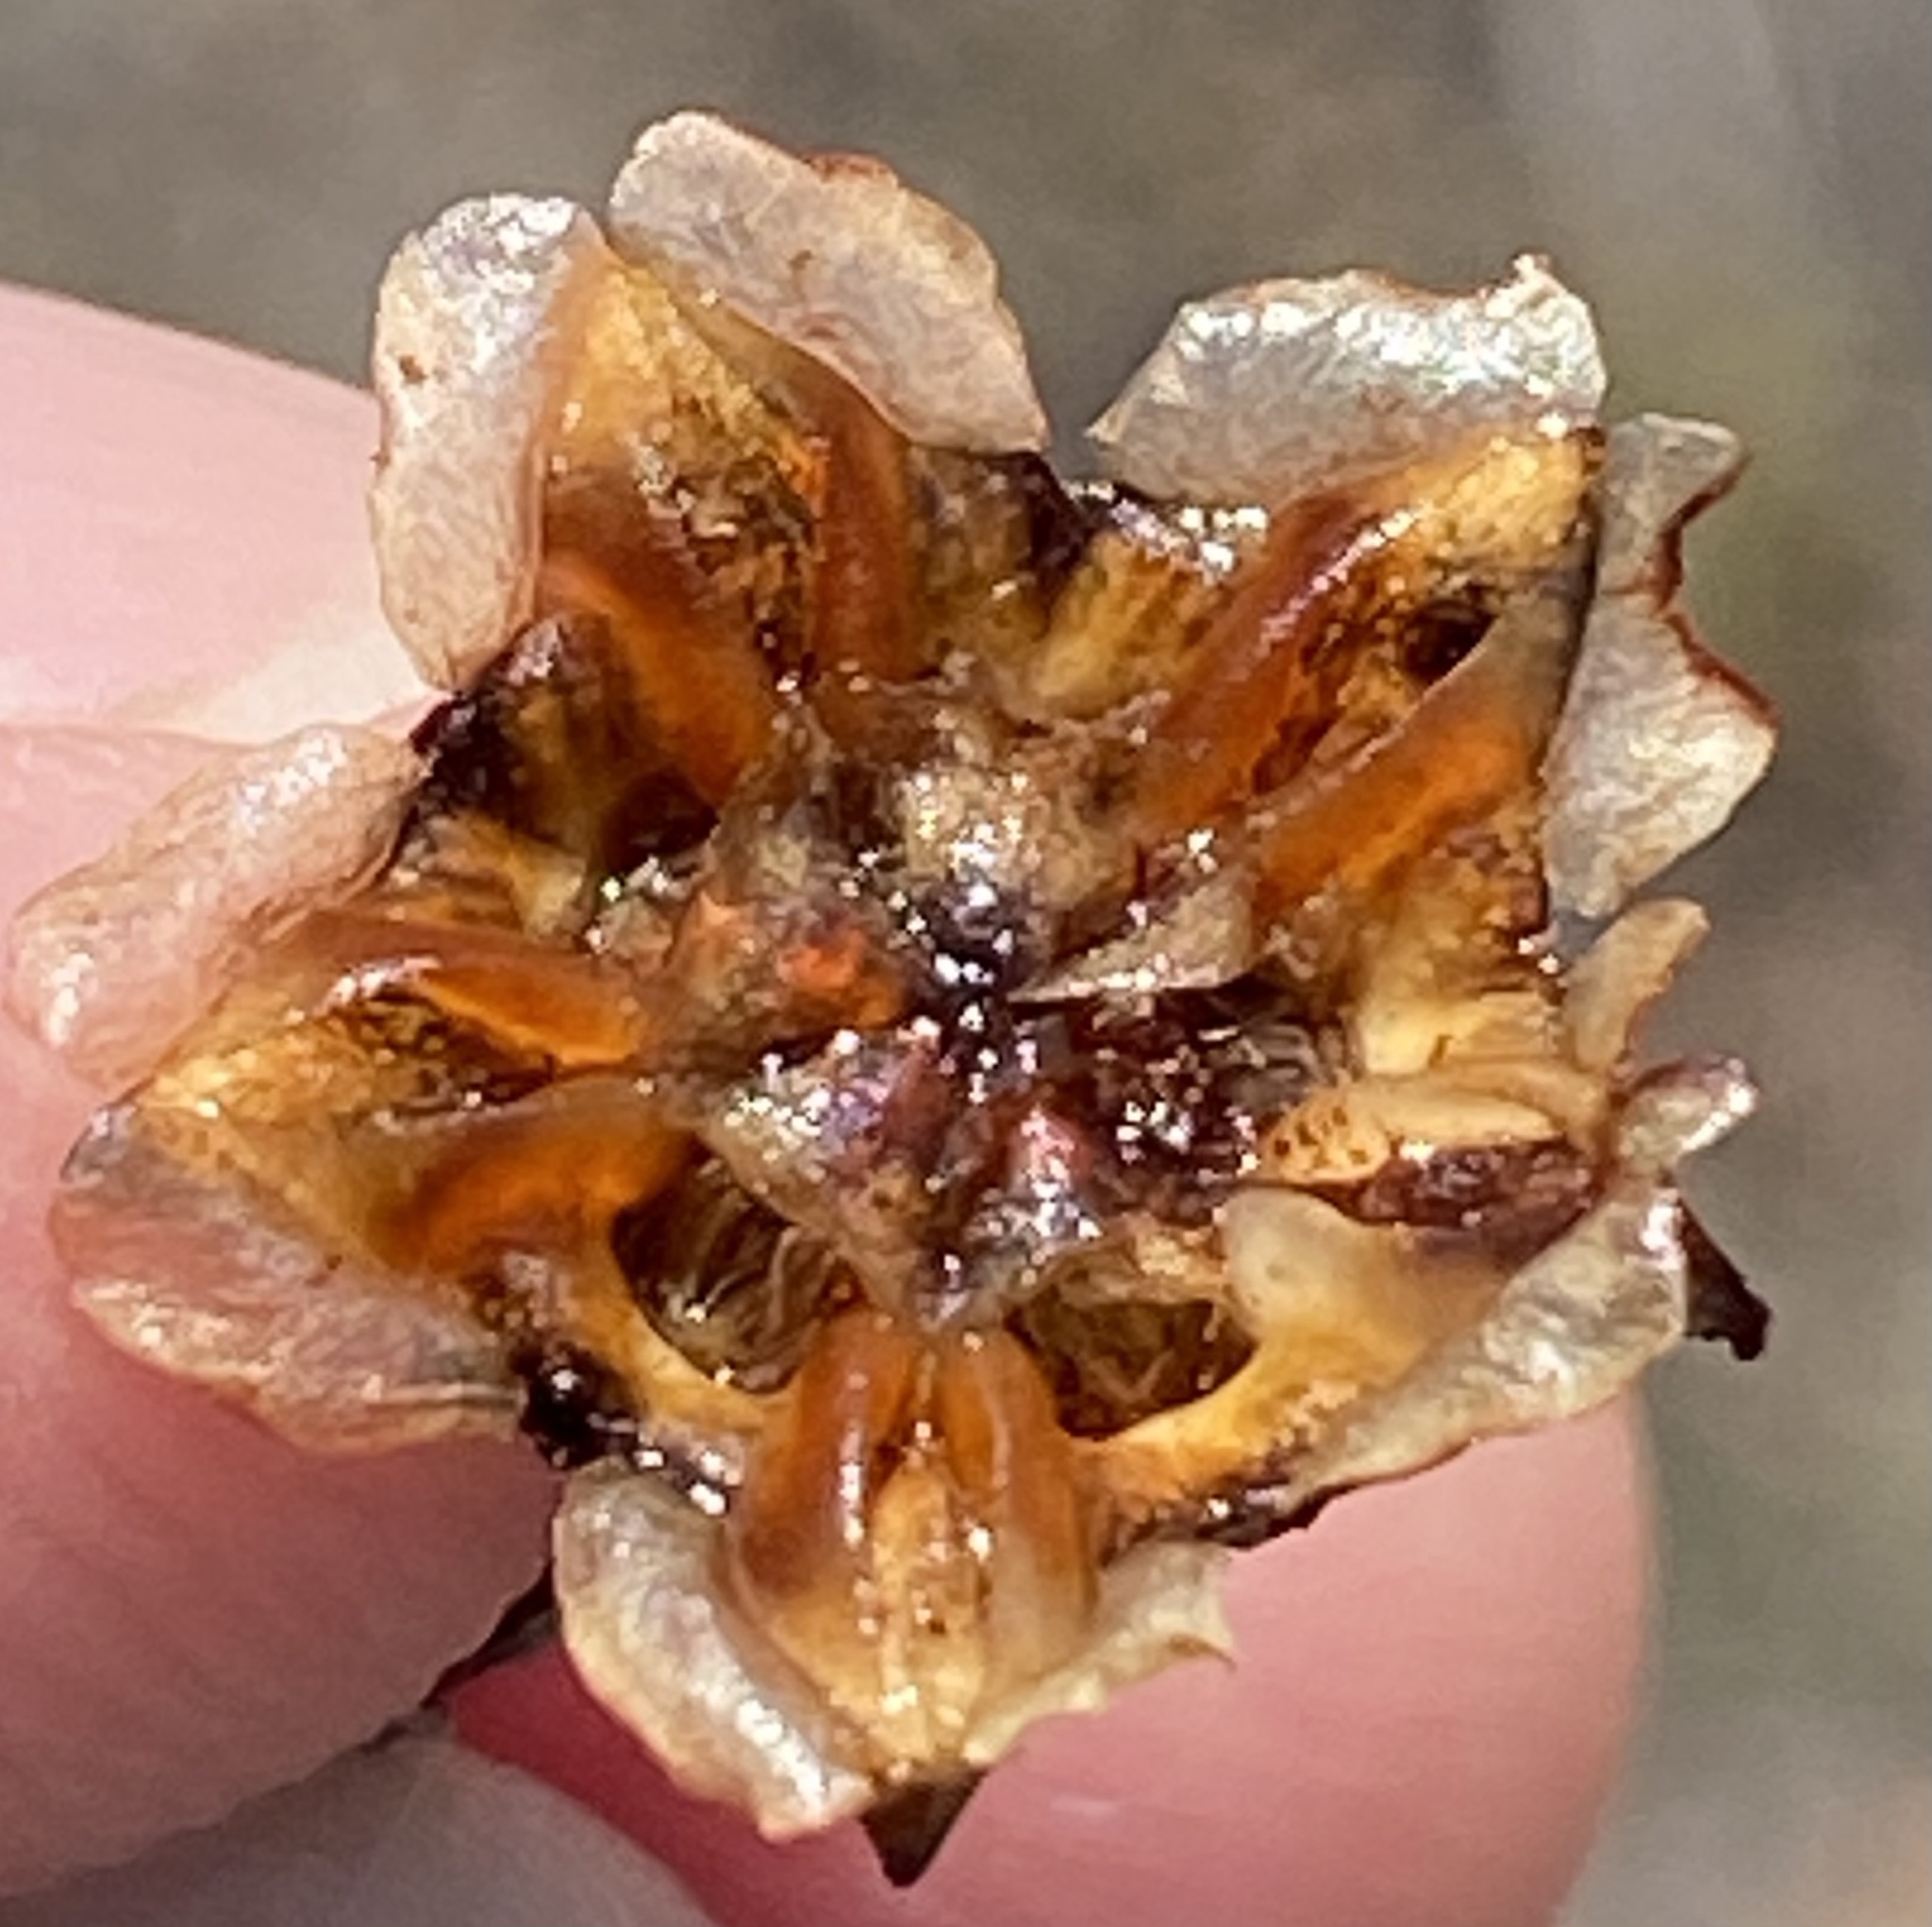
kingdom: Plantae
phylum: Tracheophyta
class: Magnoliopsida
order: Caryophyllales
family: Aizoaceae
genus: Lampranthus
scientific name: Lampranthus bicolor
